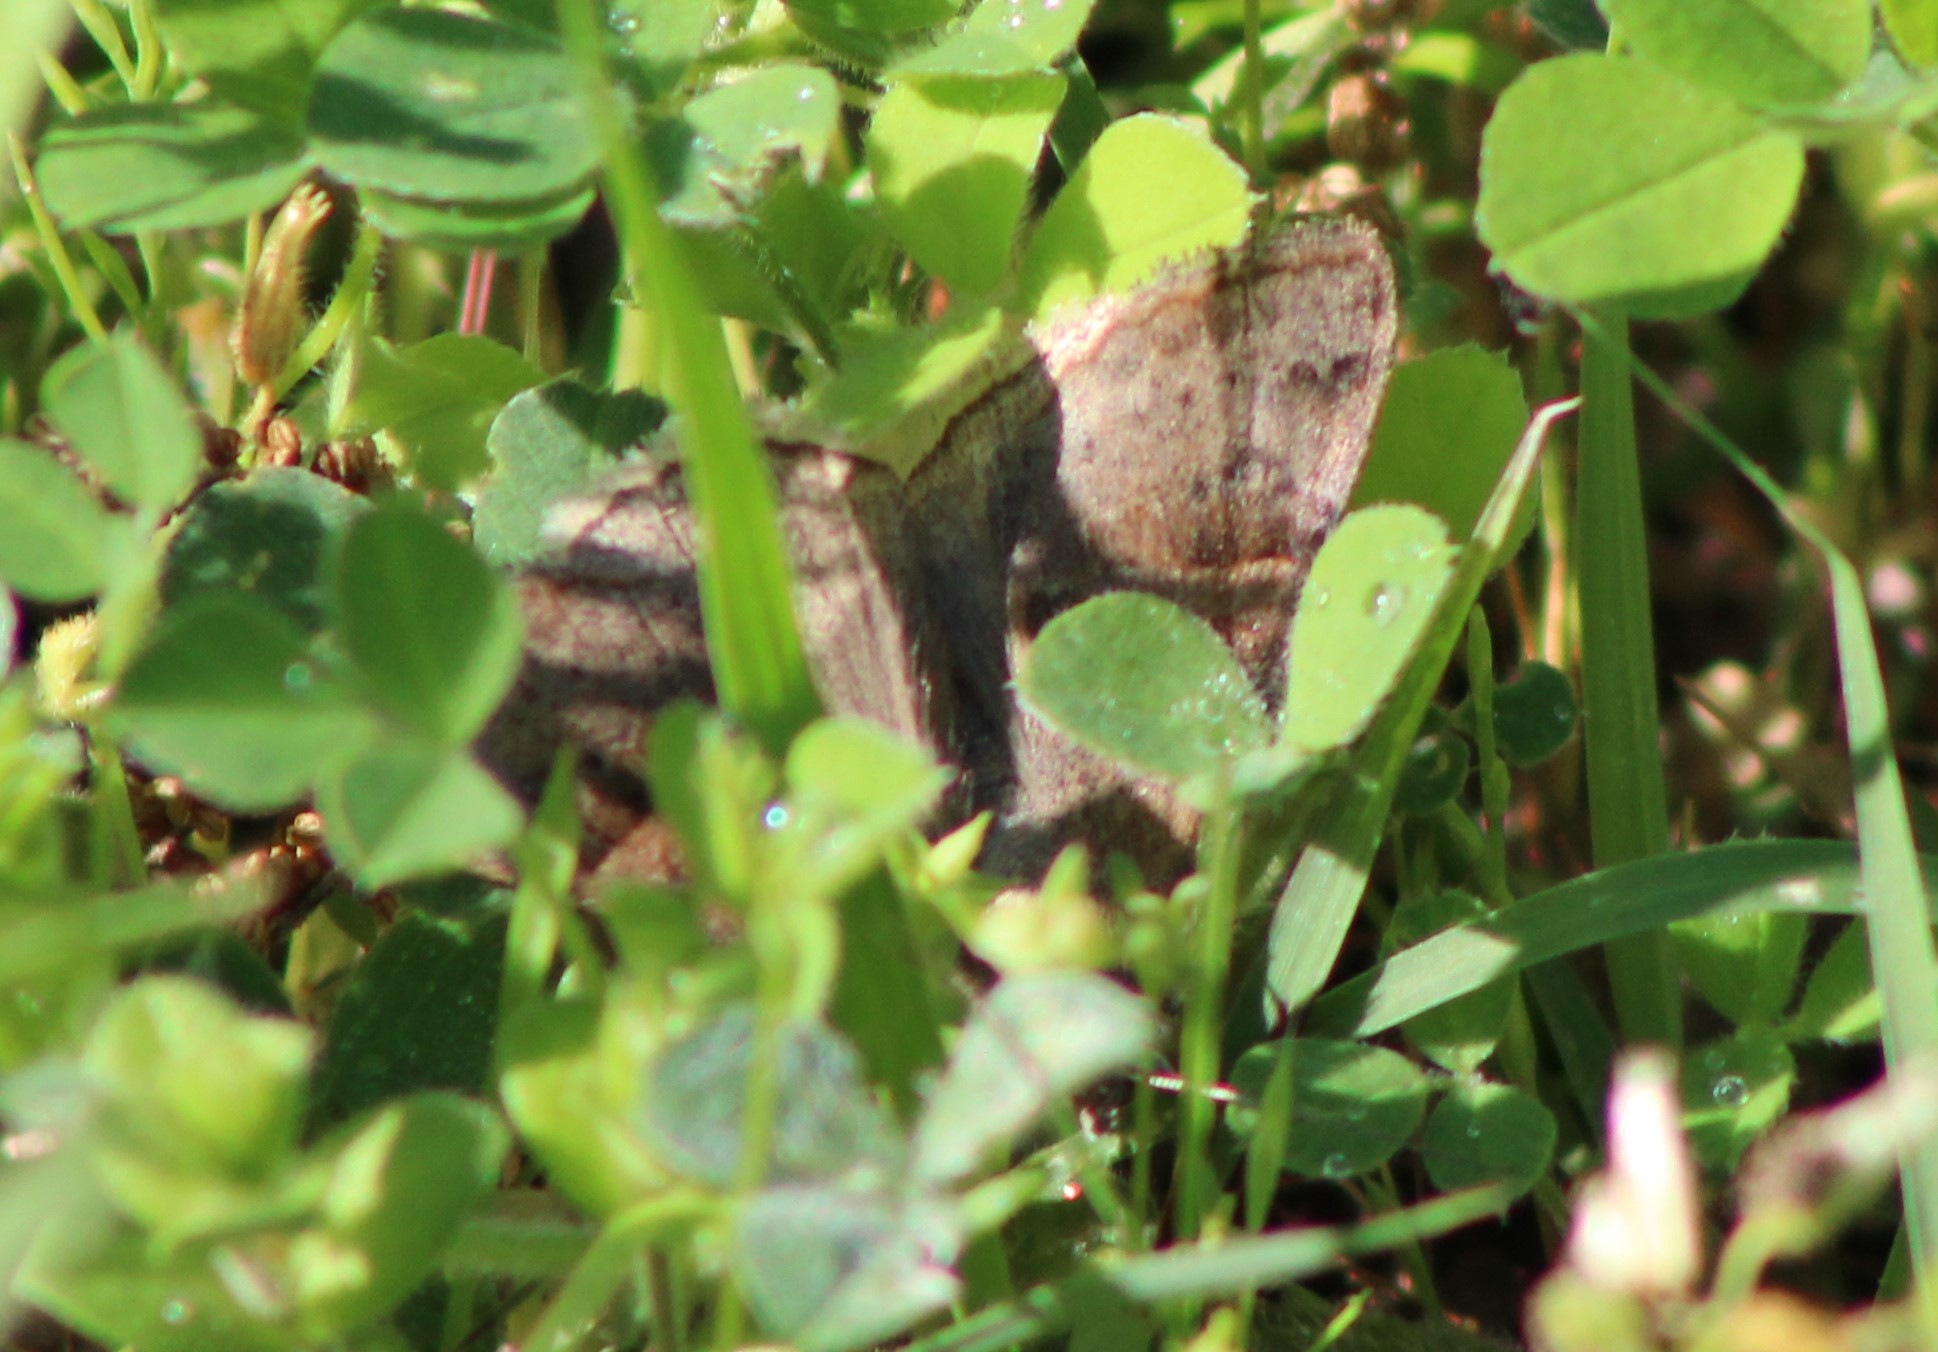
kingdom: Animalia
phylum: Arthropoda
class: Insecta
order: Lepidoptera
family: Erebidae
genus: Caenurgina
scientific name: Caenurgina erechtea
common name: Forage looper moth
